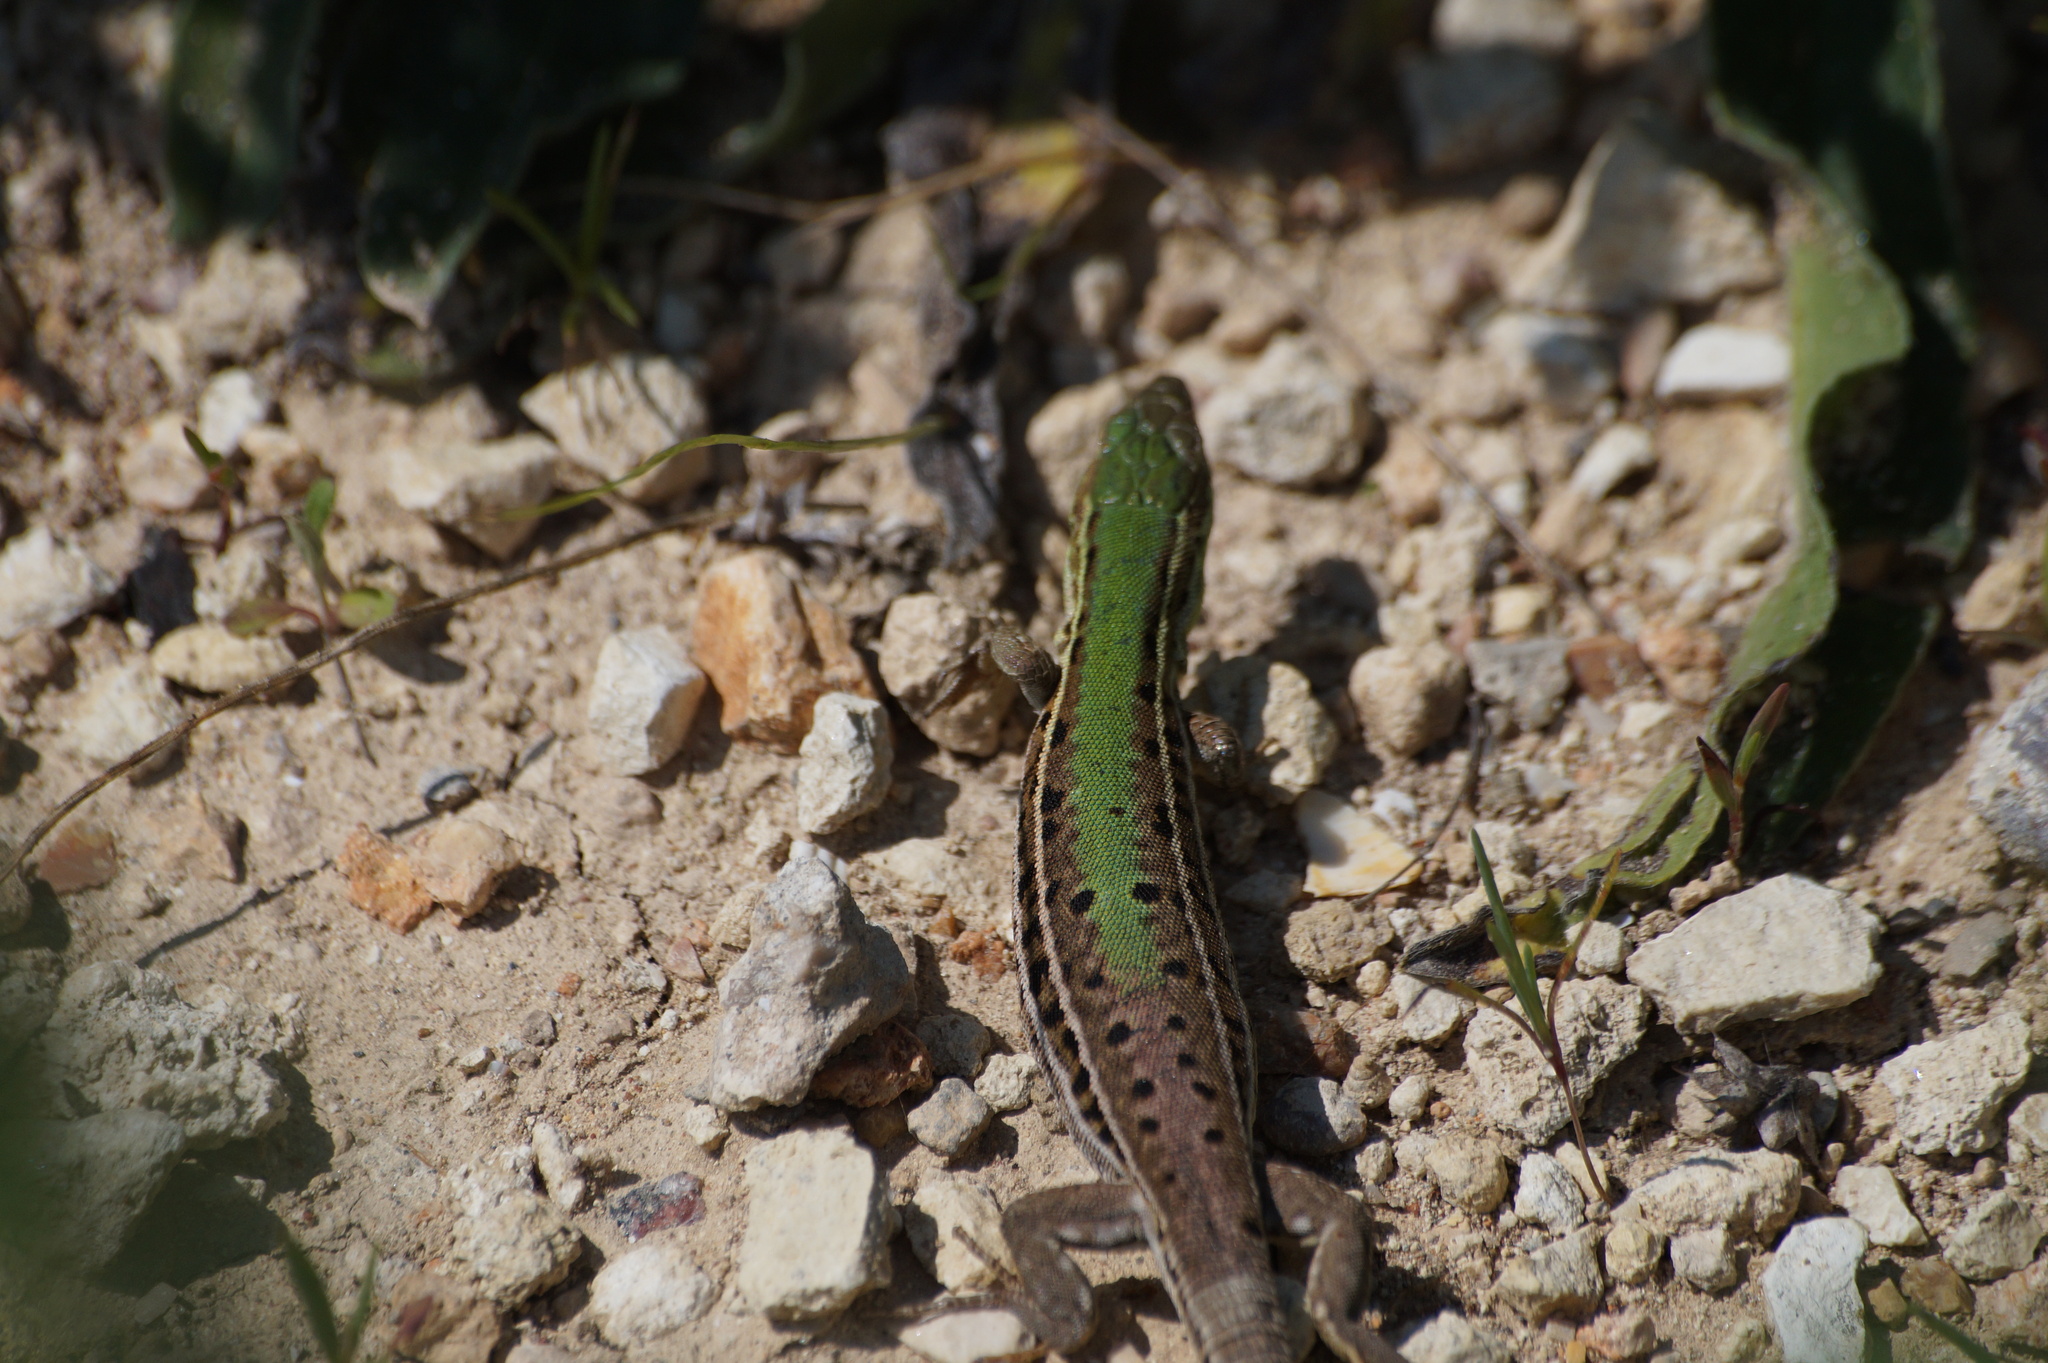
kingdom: Animalia
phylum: Chordata
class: Squamata
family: Lacertidae
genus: Podarcis
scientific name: Podarcis tauricus
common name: Balkan wall lizard
